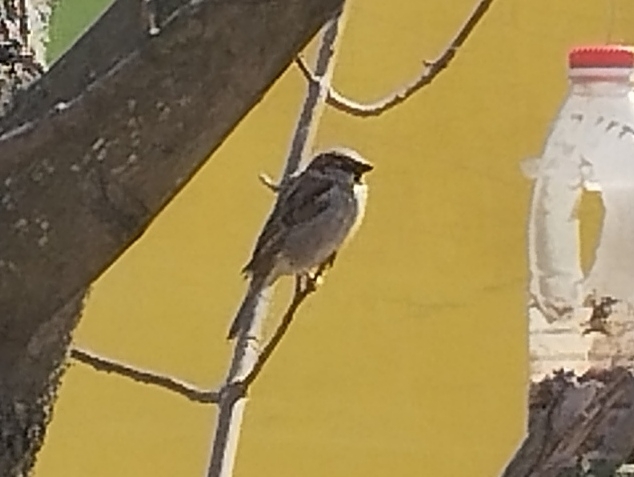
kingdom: Animalia
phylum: Chordata
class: Aves
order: Passeriformes
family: Passeridae
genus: Passer
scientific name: Passer domesticus
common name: House sparrow
